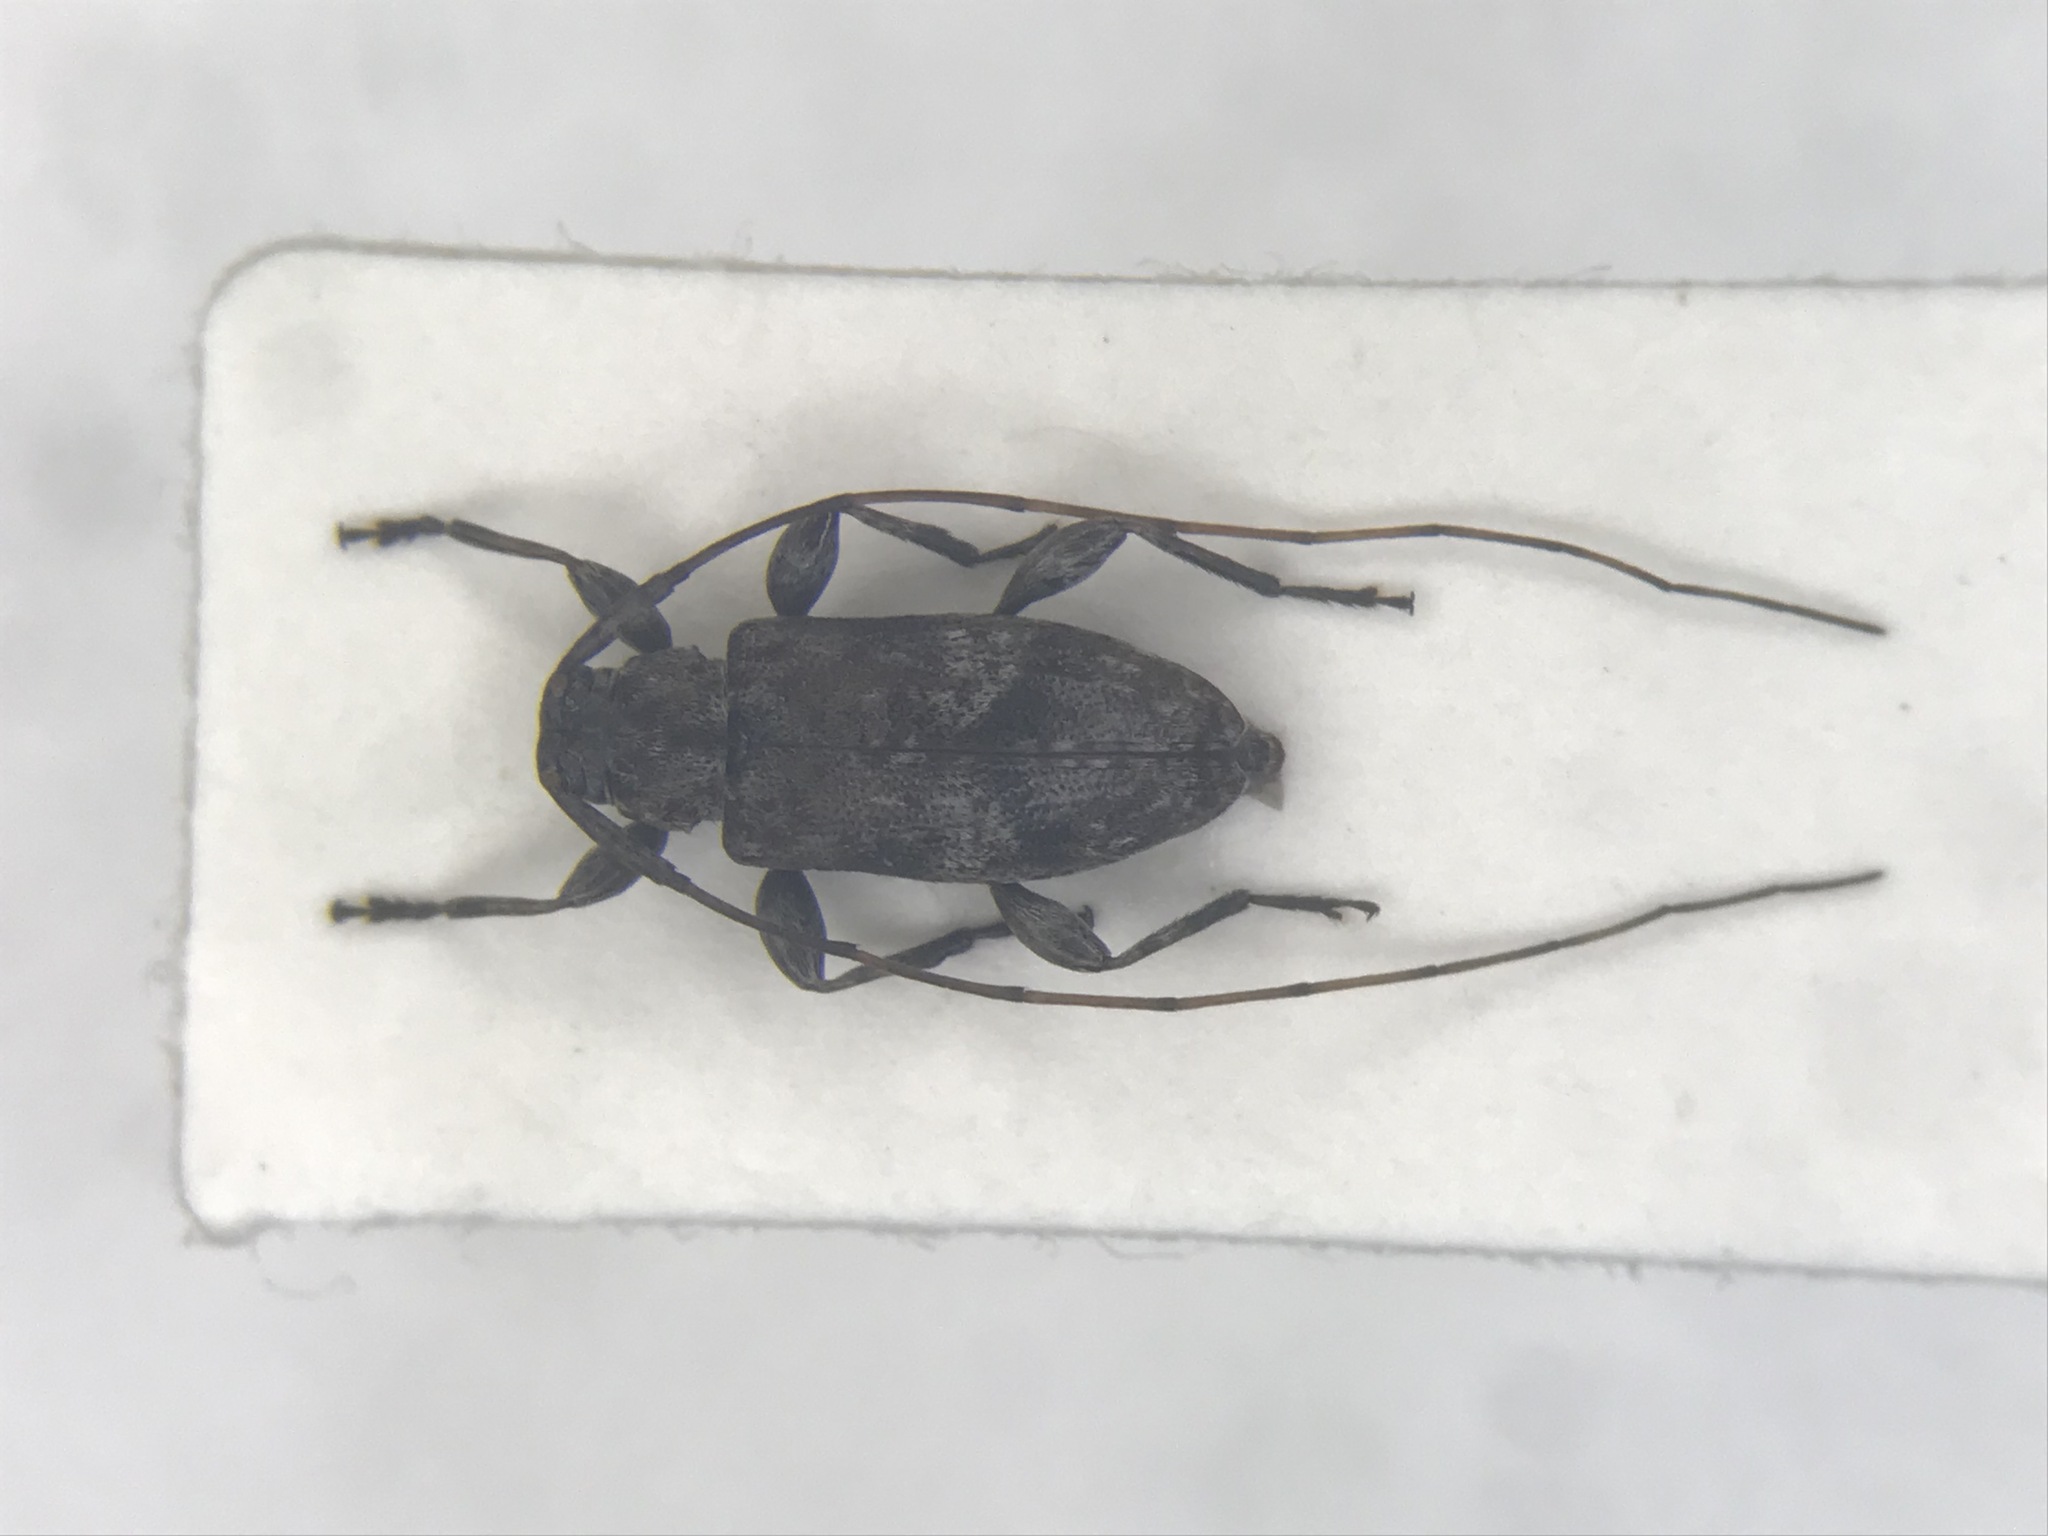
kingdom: Animalia
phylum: Arthropoda
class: Insecta
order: Coleoptera
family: Cerambycidae
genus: Sternidius
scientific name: Sternidius alpha
